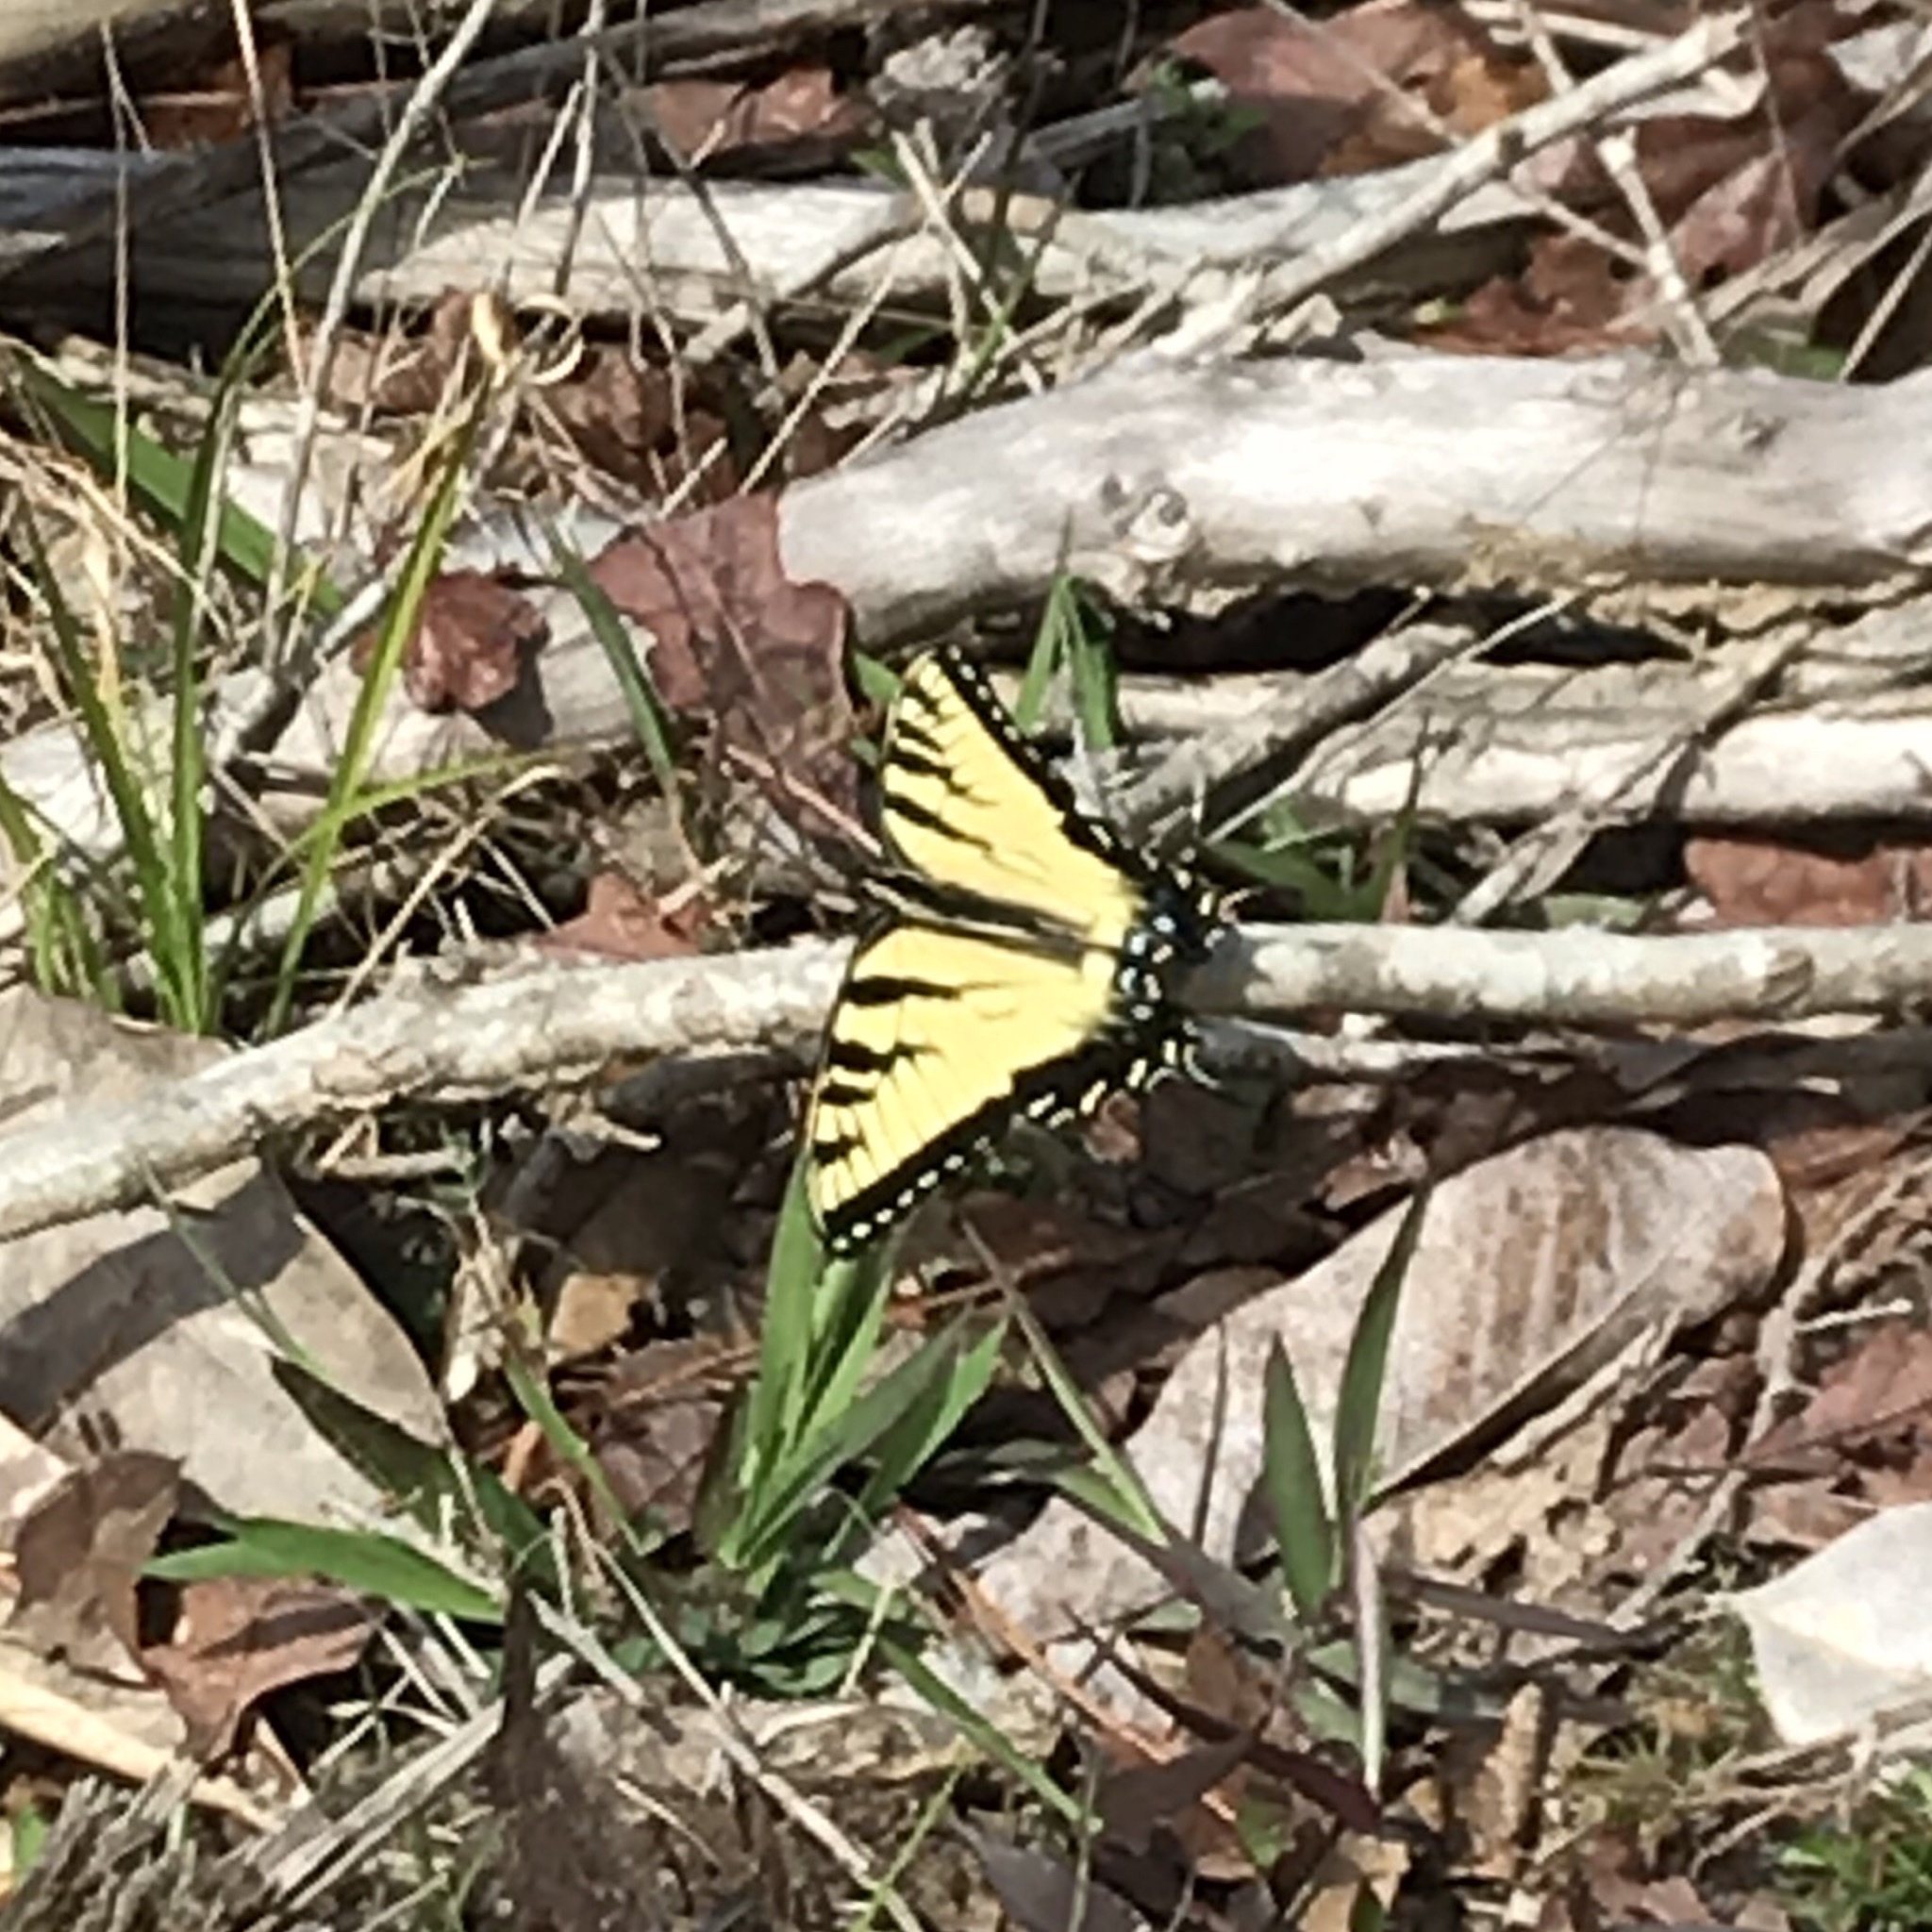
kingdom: Animalia
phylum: Arthropoda
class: Insecta
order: Lepidoptera
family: Papilionidae
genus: Papilio
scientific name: Papilio glaucus
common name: Tiger swallowtail
